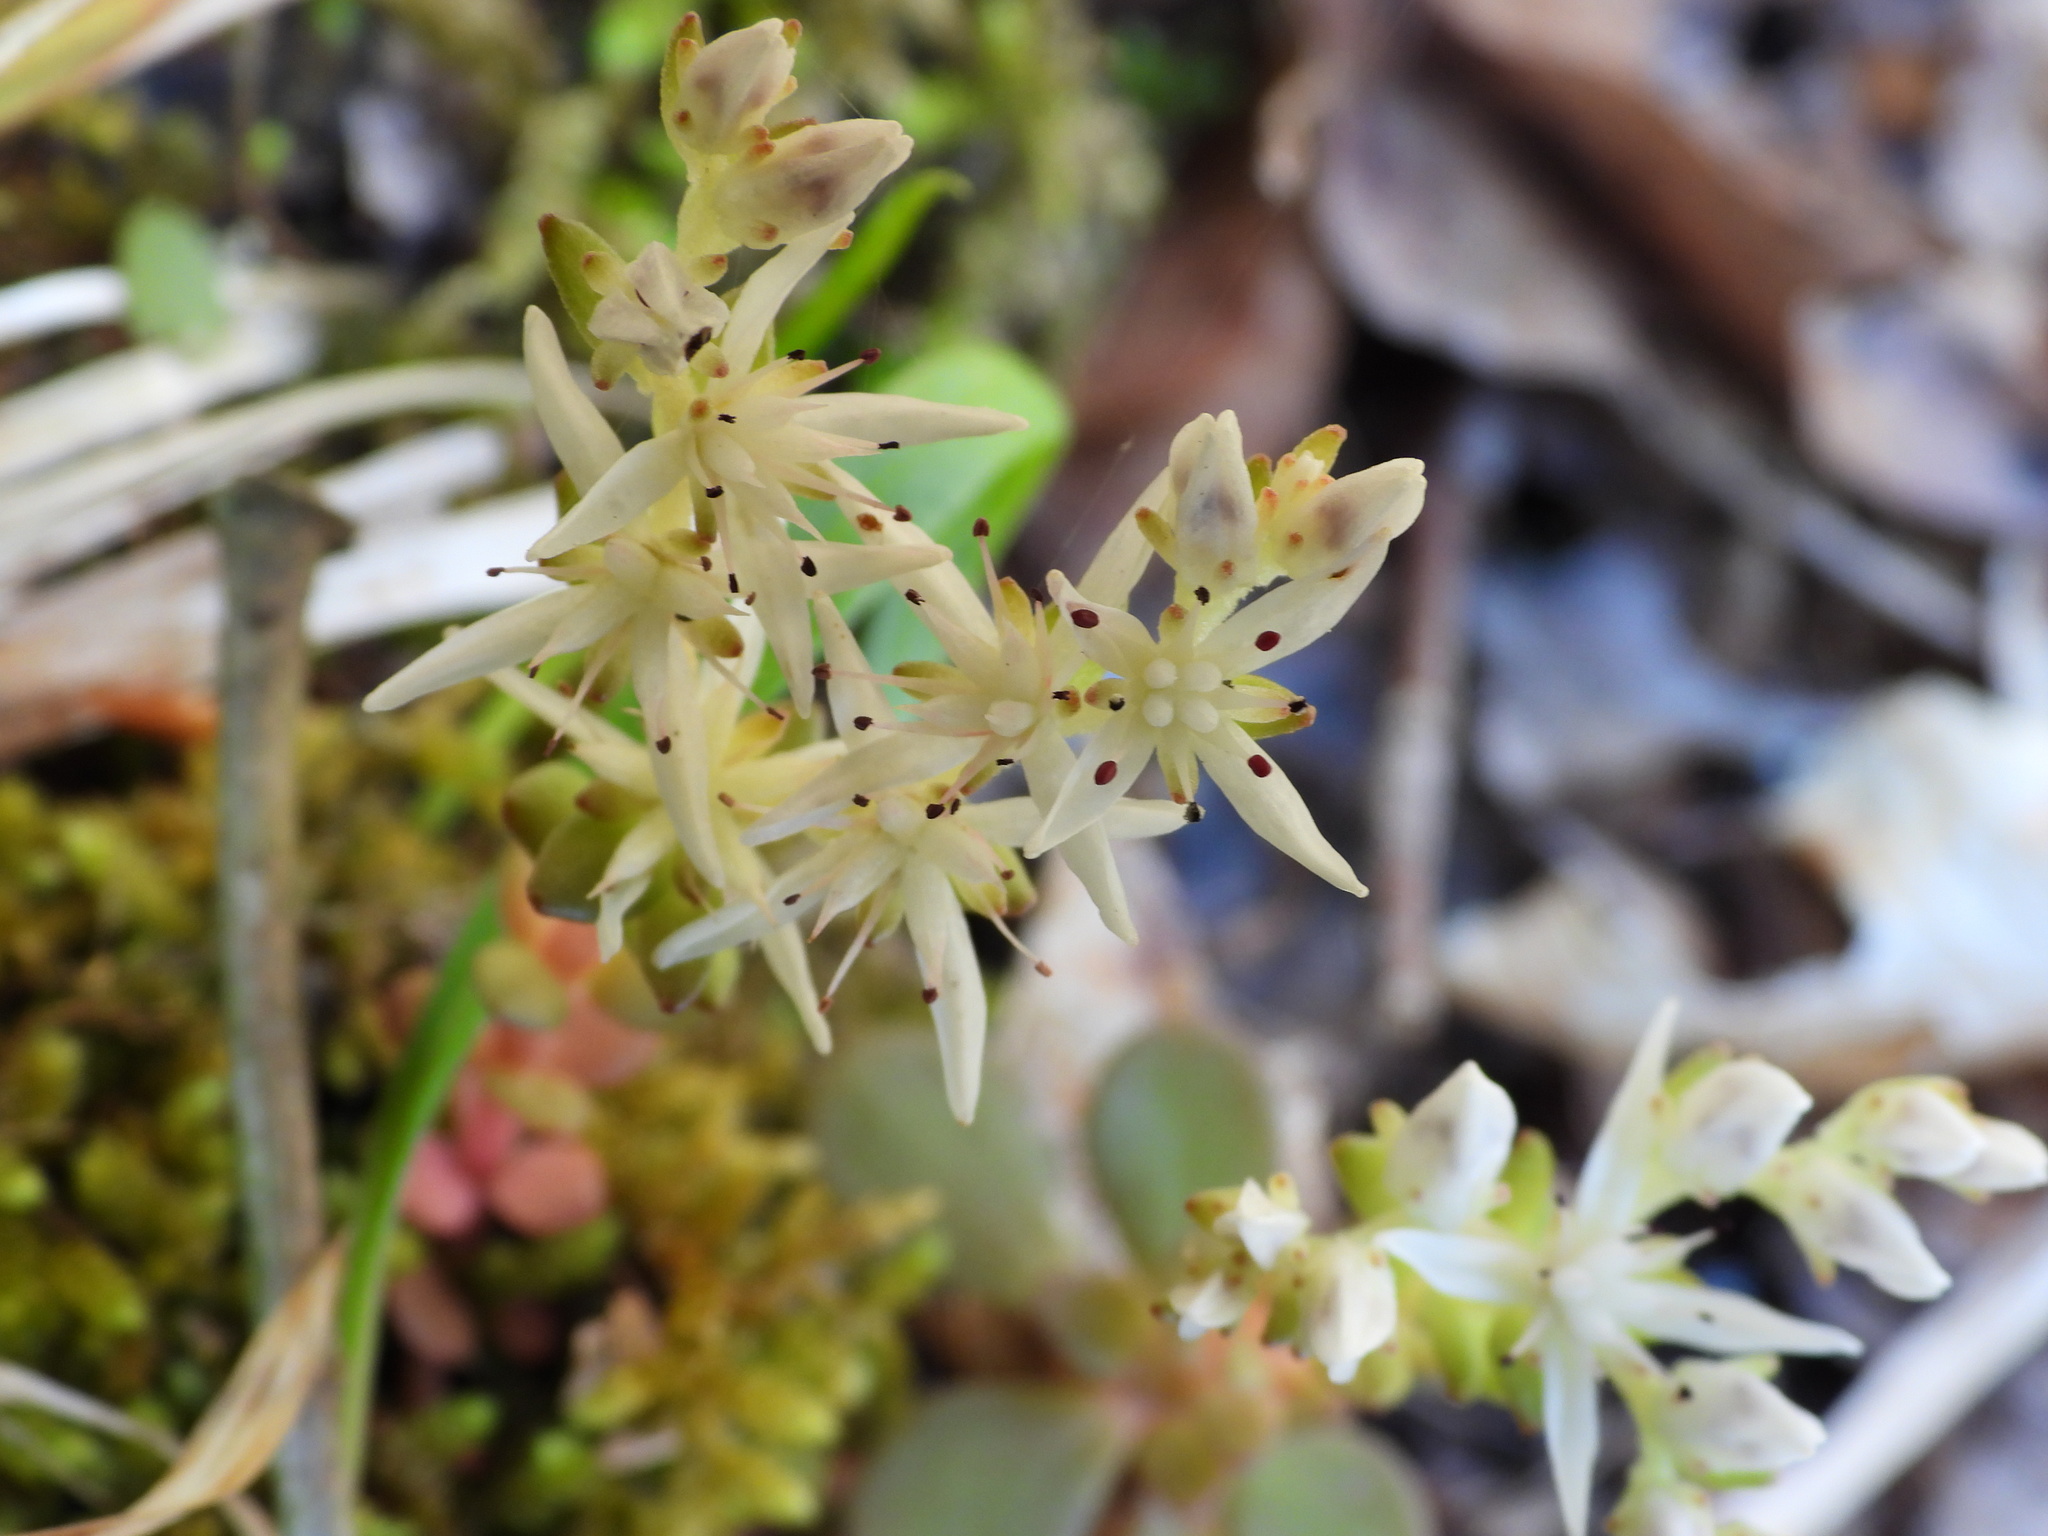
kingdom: Plantae
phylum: Tracheophyta
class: Magnoliopsida
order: Saxifragales
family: Crassulaceae
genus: Sedum
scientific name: Sedum ternatum
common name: Wild stonecrop
